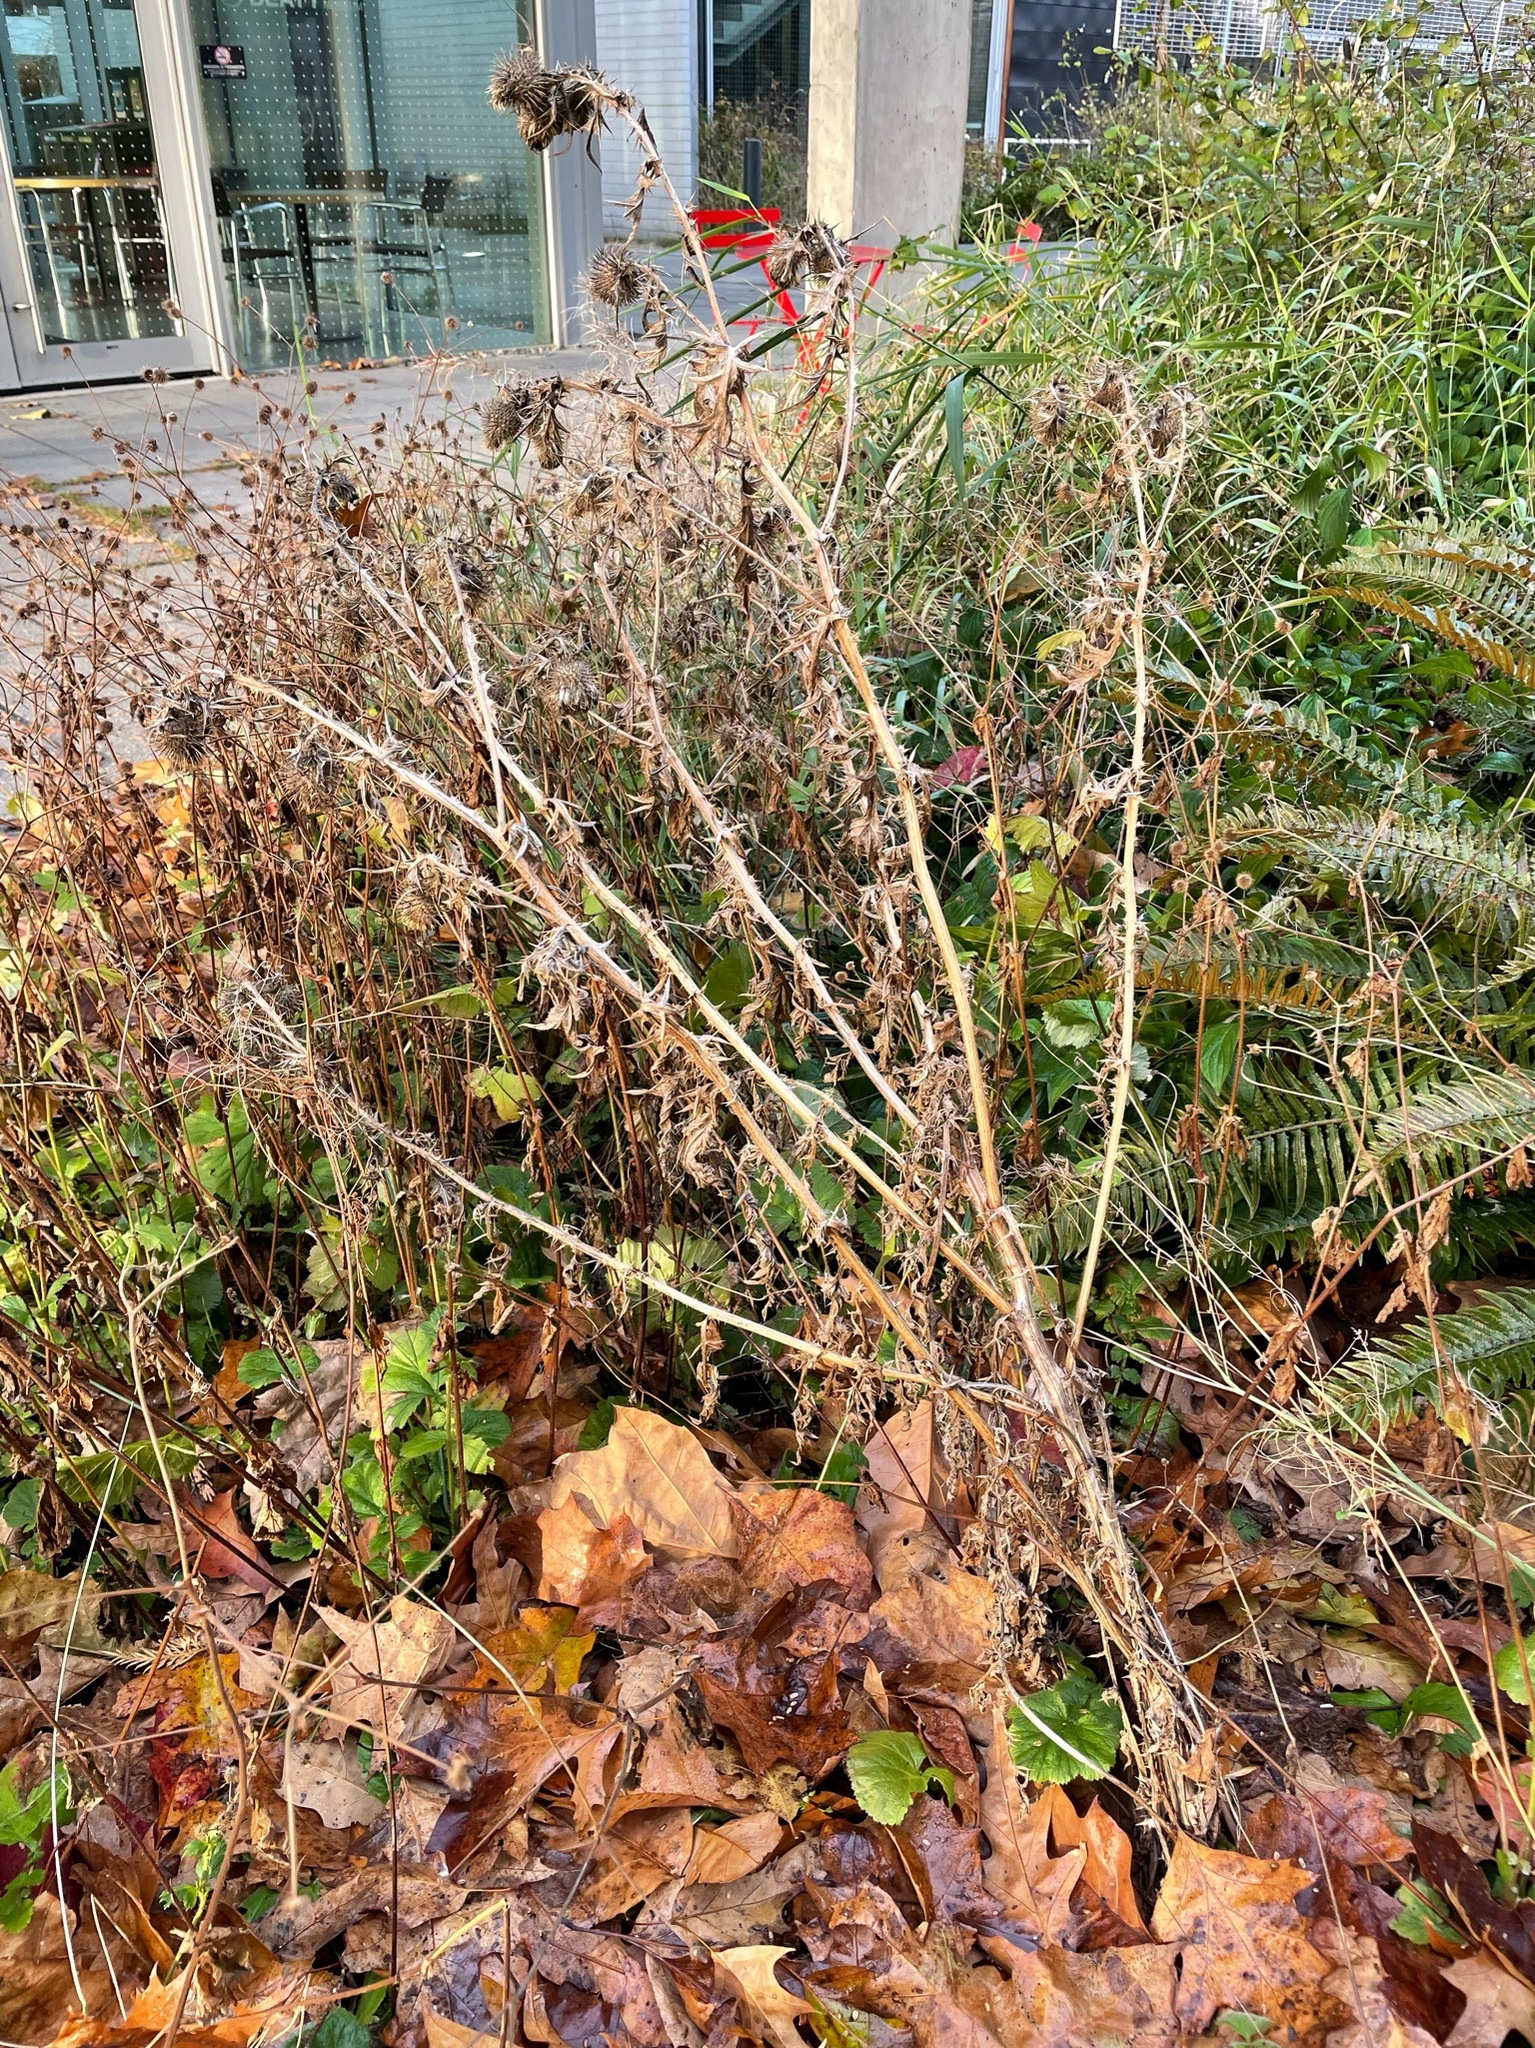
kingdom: Plantae
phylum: Tracheophyta
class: Magnoliopsida
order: Asterales
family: Asteraceae
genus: Cirsium
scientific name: Cirsium vulgare
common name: Bull thistle
